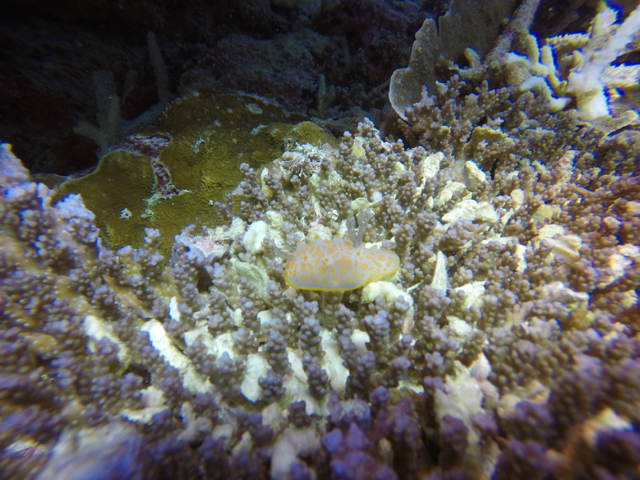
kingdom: Animalia
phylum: Mollusca
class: Gastropoda
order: Nudibranchia
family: Discodorididae
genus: Halgerda
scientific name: Halgerda aurantiomaculata
